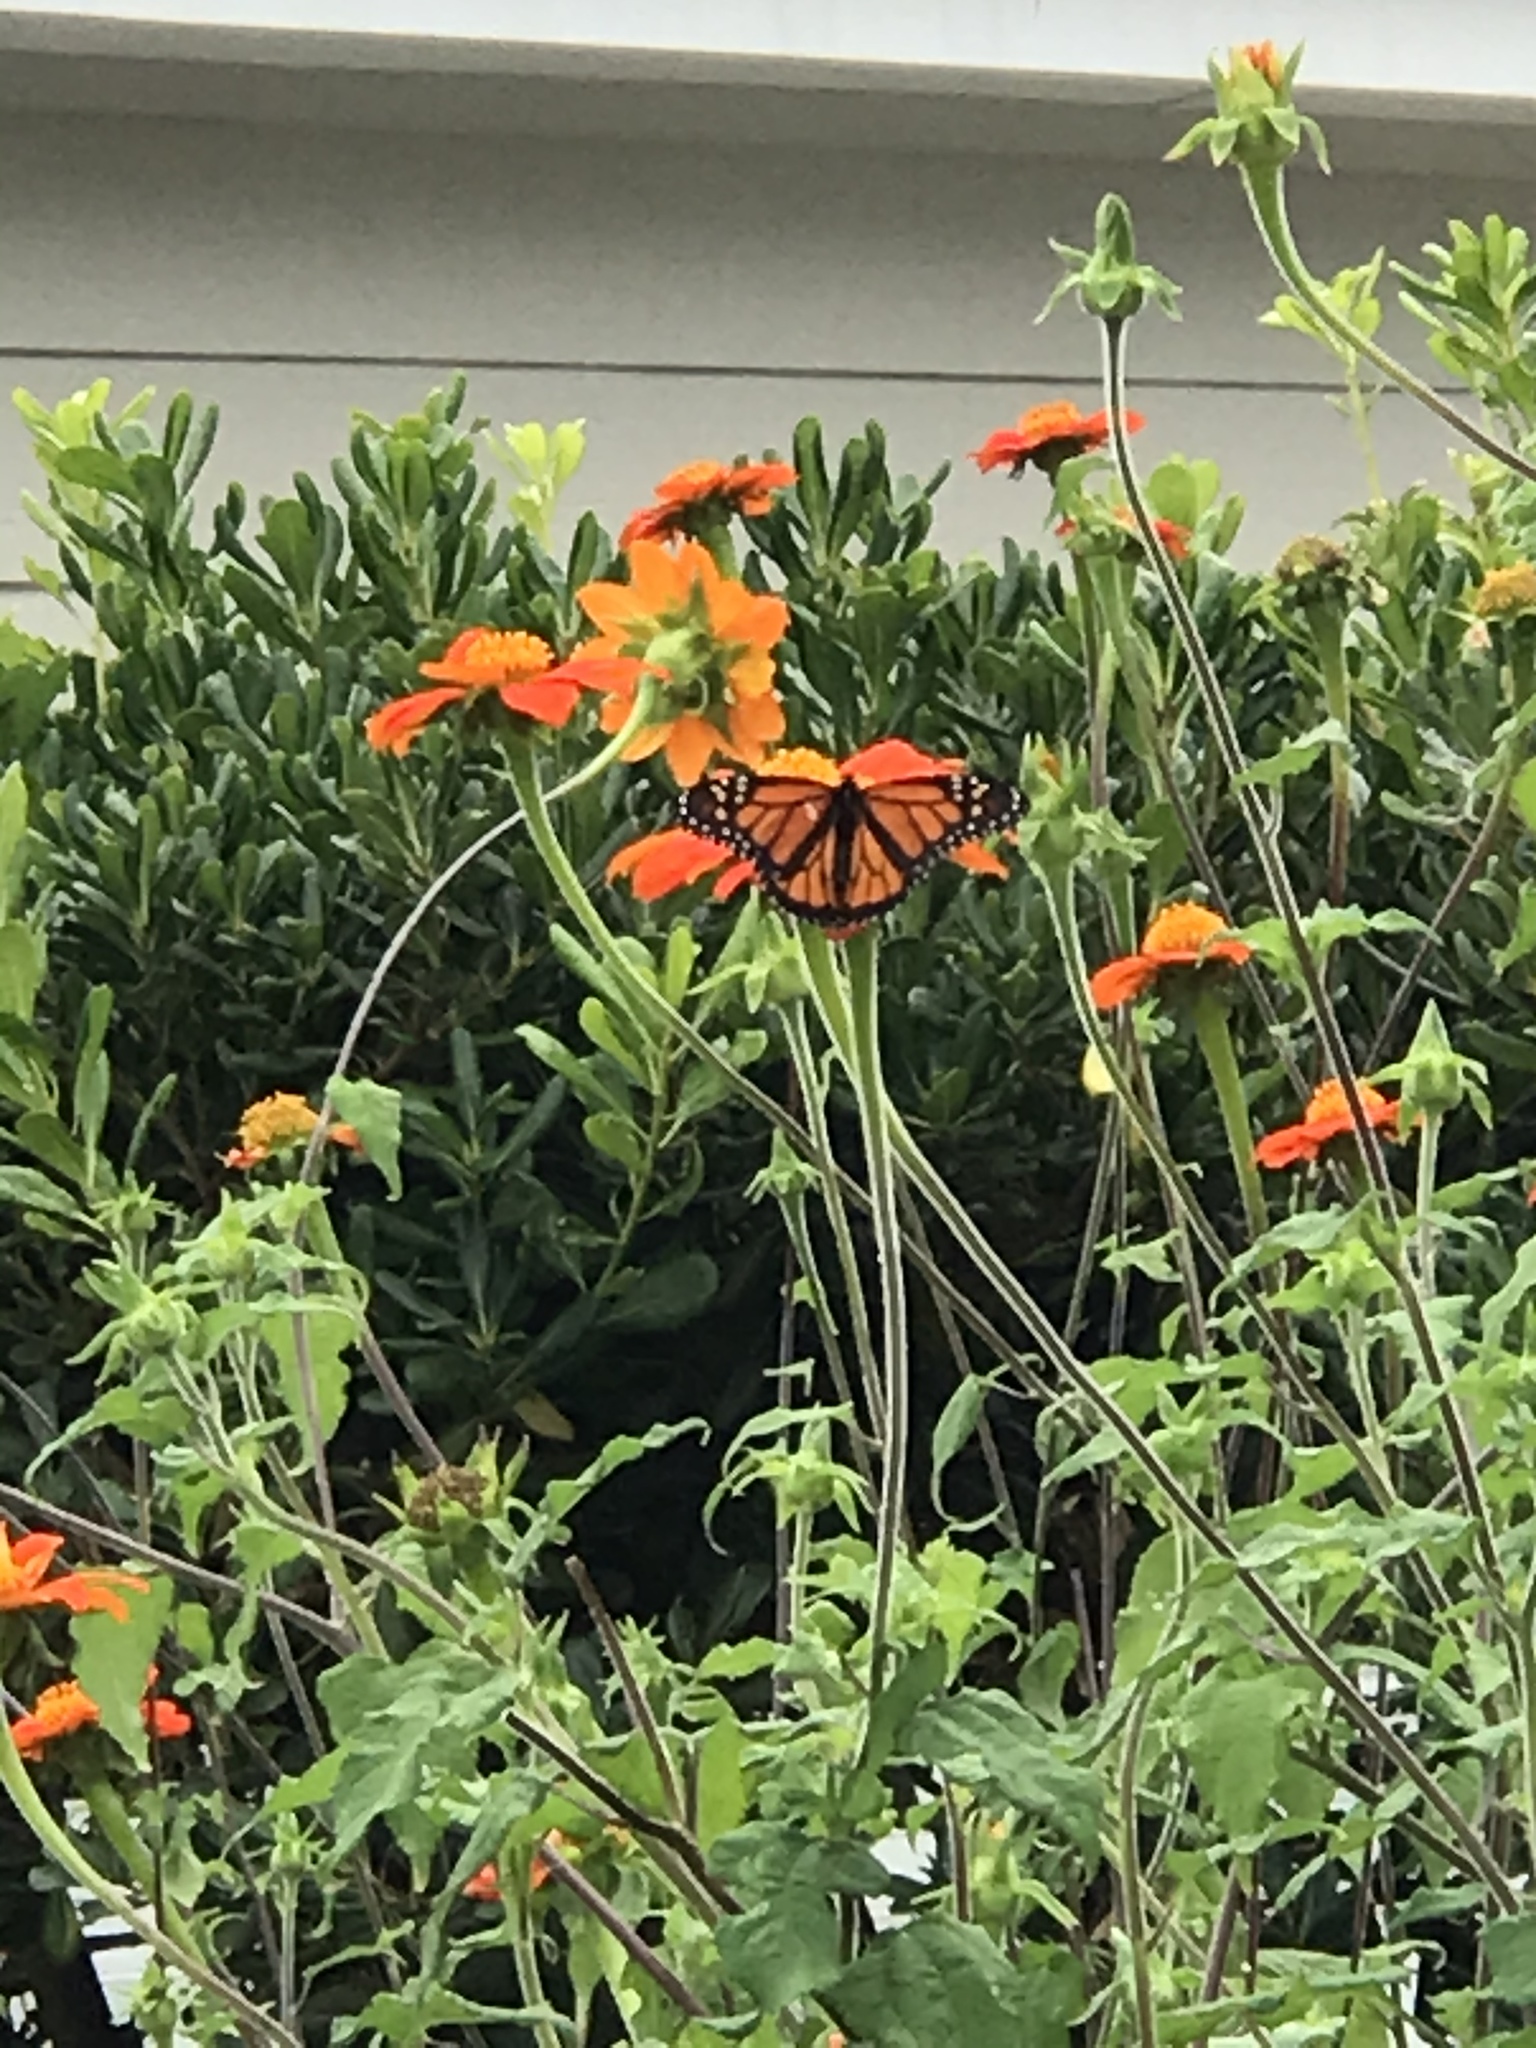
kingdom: Animalia
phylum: Arthropoda
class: Insecta
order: Lepidoptera
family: Nymphalidae
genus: Danaus
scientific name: Danaus plexippus
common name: Monarch
